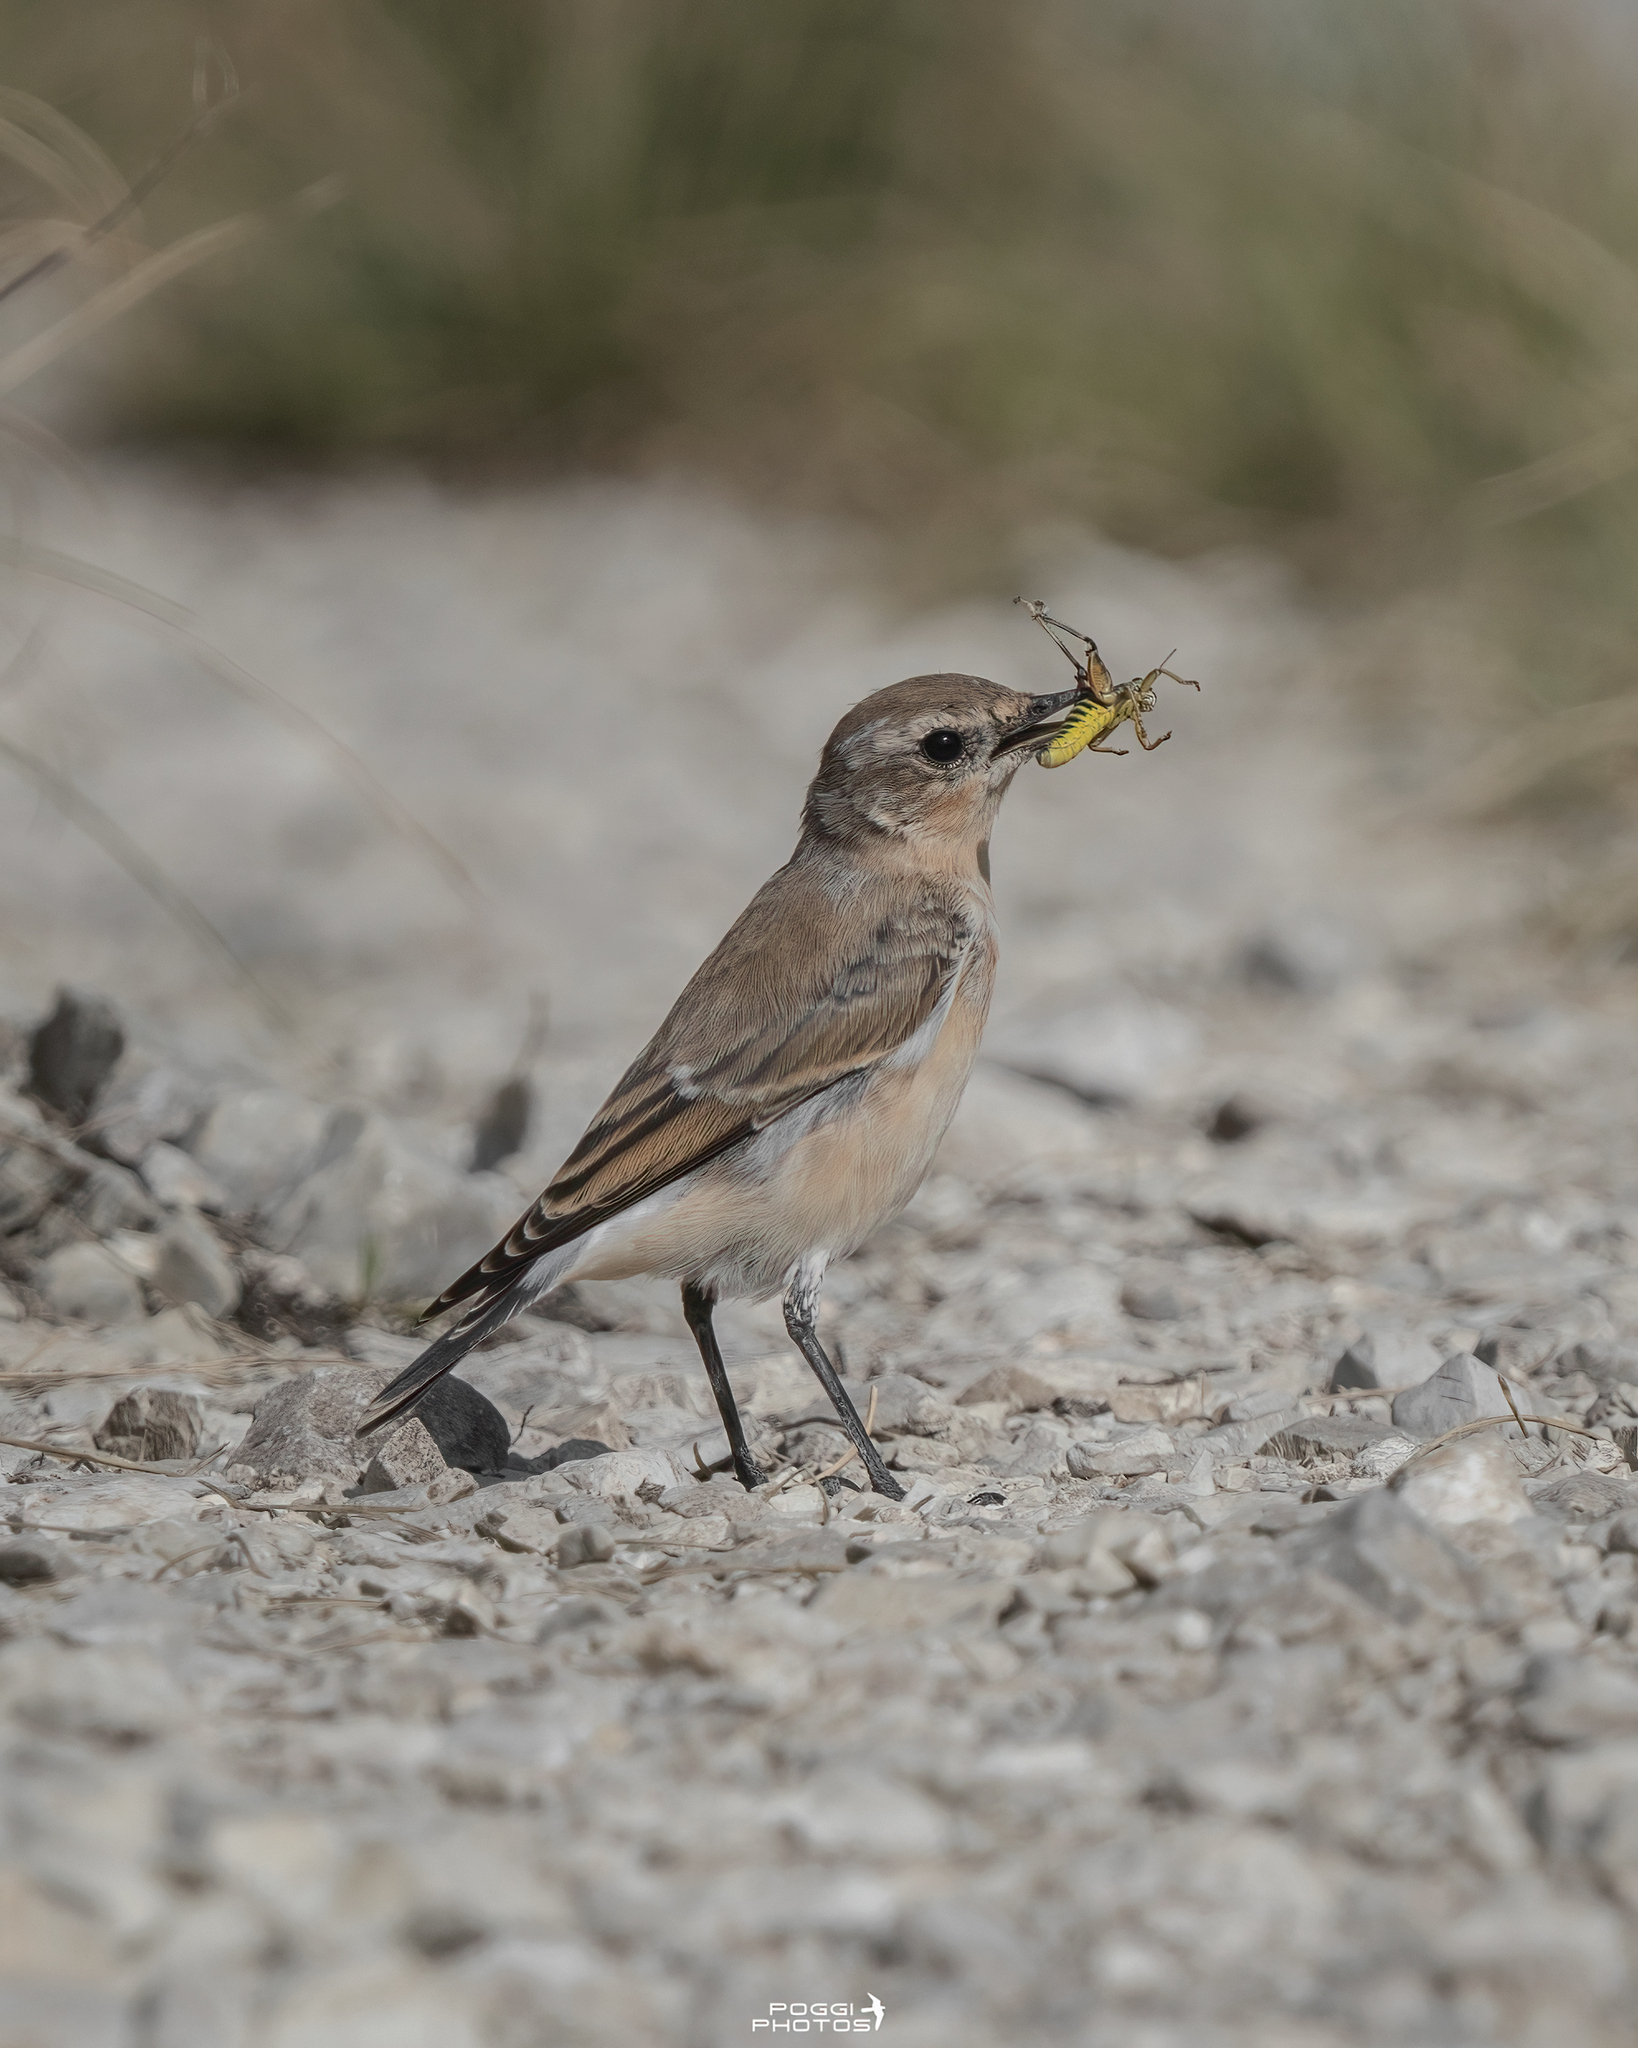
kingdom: Animalia
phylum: Chordata
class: Aves
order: Passeriformes
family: Muscicapidae
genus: Oenanthe
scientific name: Oenanthe oenanthe
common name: Northern wheatear
